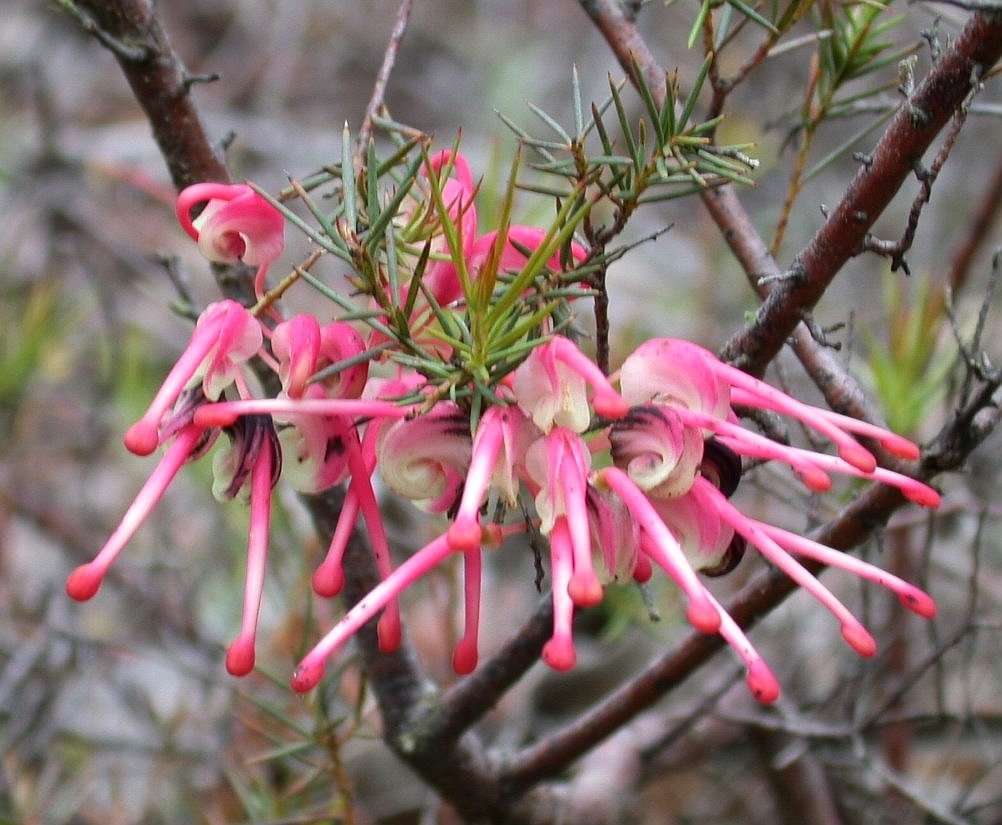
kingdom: Plantae
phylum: Tracheophyta
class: Magnoliopsida
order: Proteales
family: Proteaceae
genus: Grevillea
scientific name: Grevillea rosmarinifolia
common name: Rosemary grevillea
